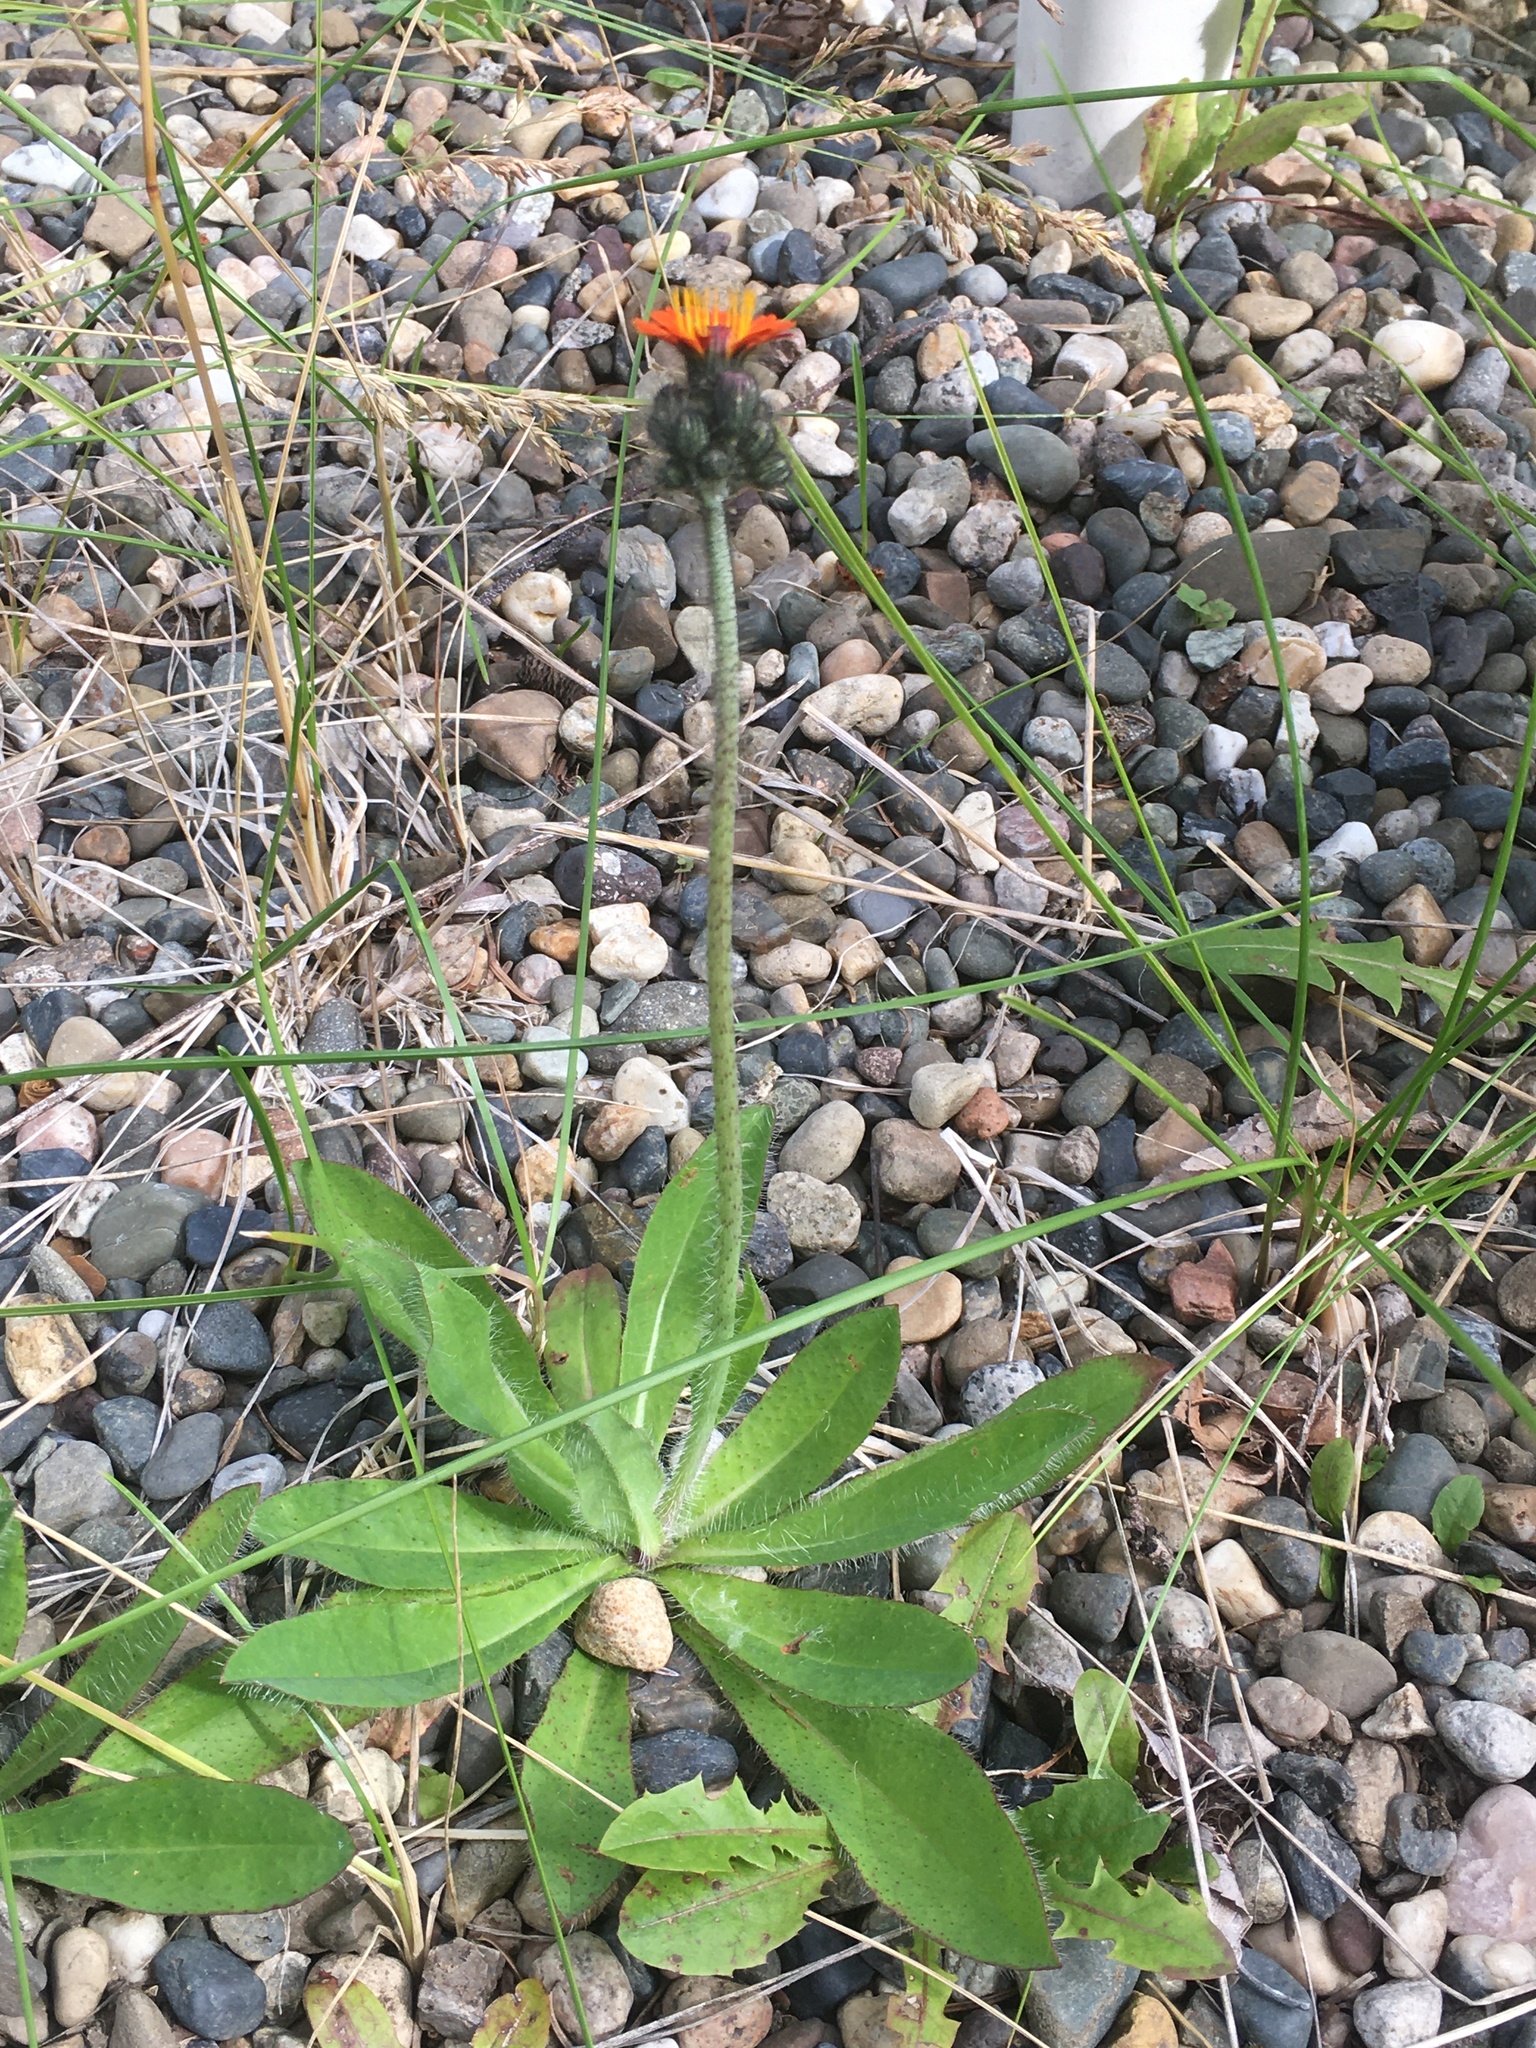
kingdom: Plantae
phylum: Tracheophyta
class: Magnoliopsida
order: Asterales
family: Asteraceae
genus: Pilosella
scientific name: Pilosella aurantiaca
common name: Fox-and-cubs
